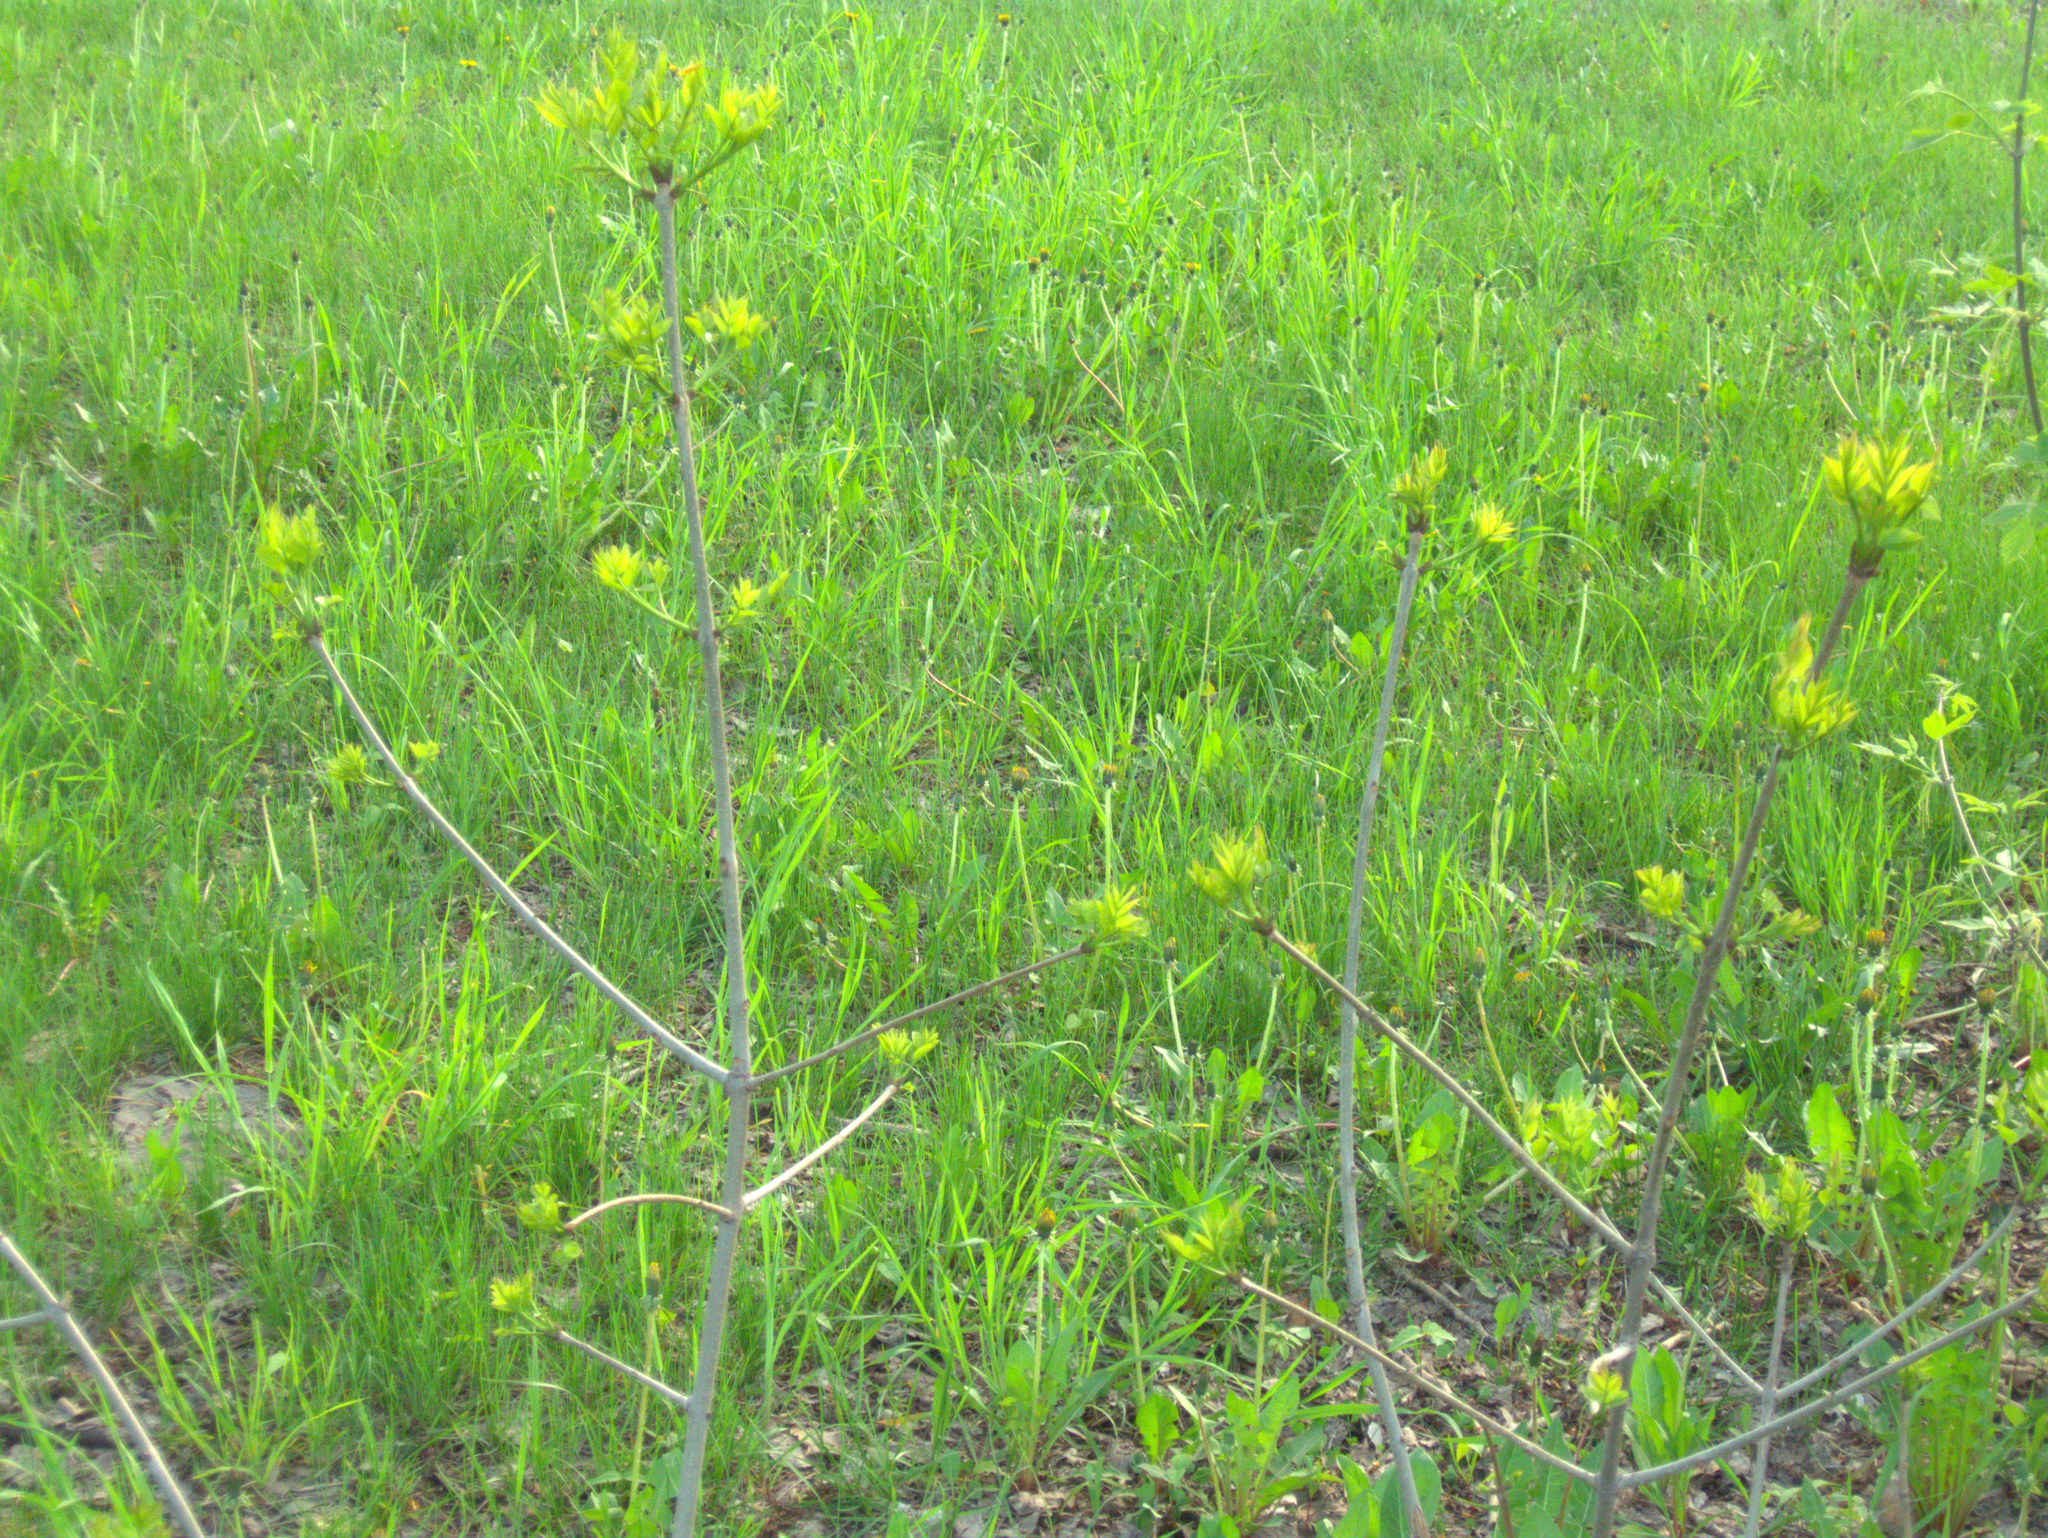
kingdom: Plantae
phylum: Tracheophyta
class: Magnoliopsida
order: Sapindales
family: Sapindaceae
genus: Acer
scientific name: Acer negundo
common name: Ashleaf maple
